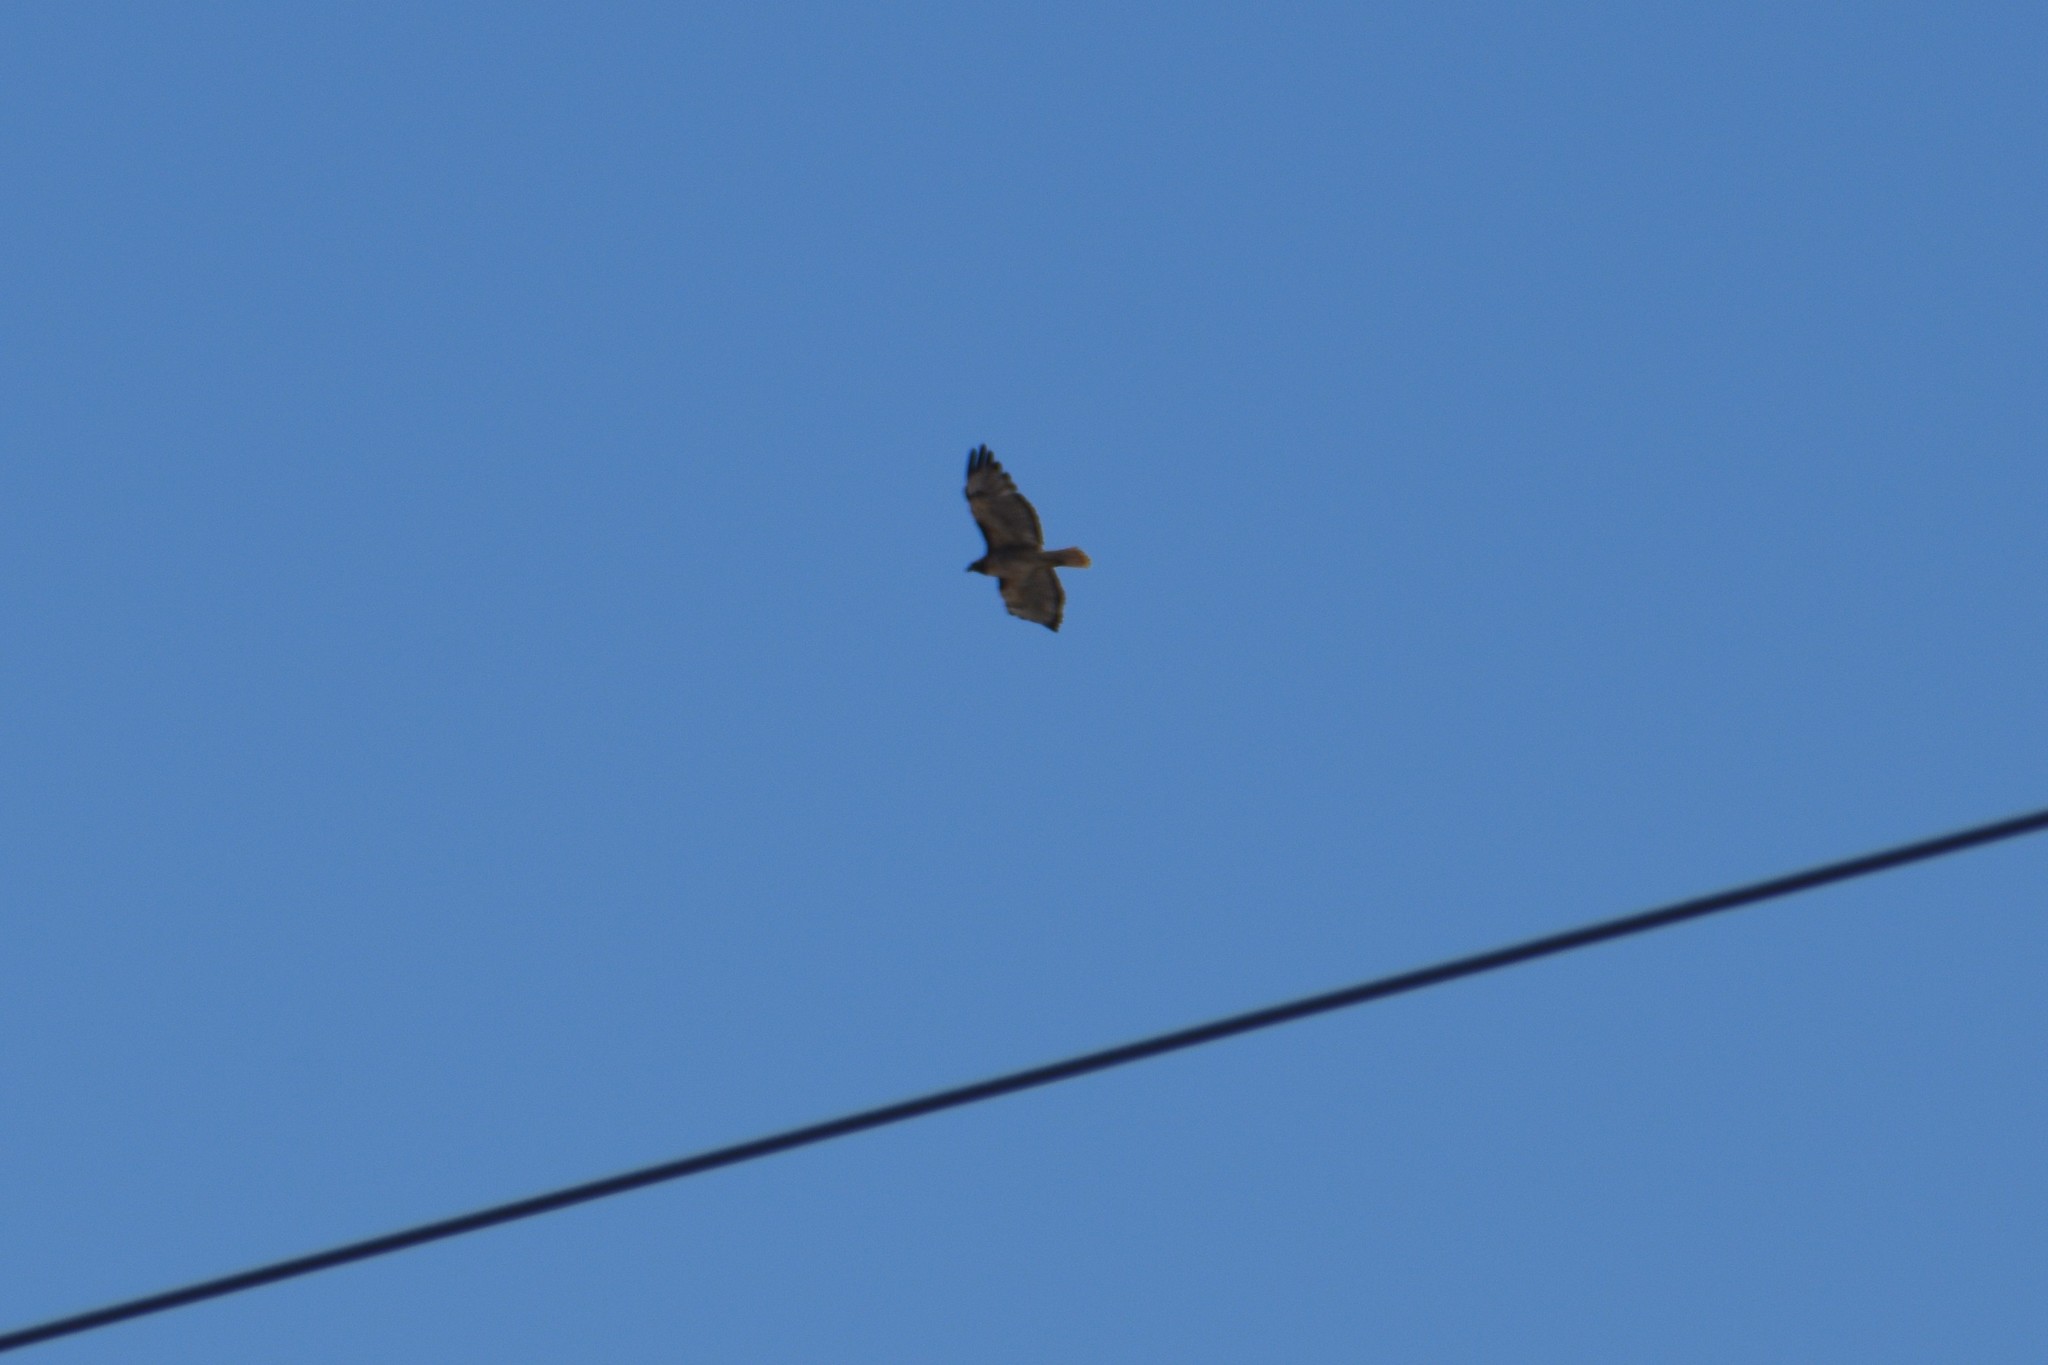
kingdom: Animalia
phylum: Chordata
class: Aves
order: Accipitriformes
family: Accipitridae
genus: Buteo
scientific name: Buteo jamaicensis
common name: Red-tailed hawk
